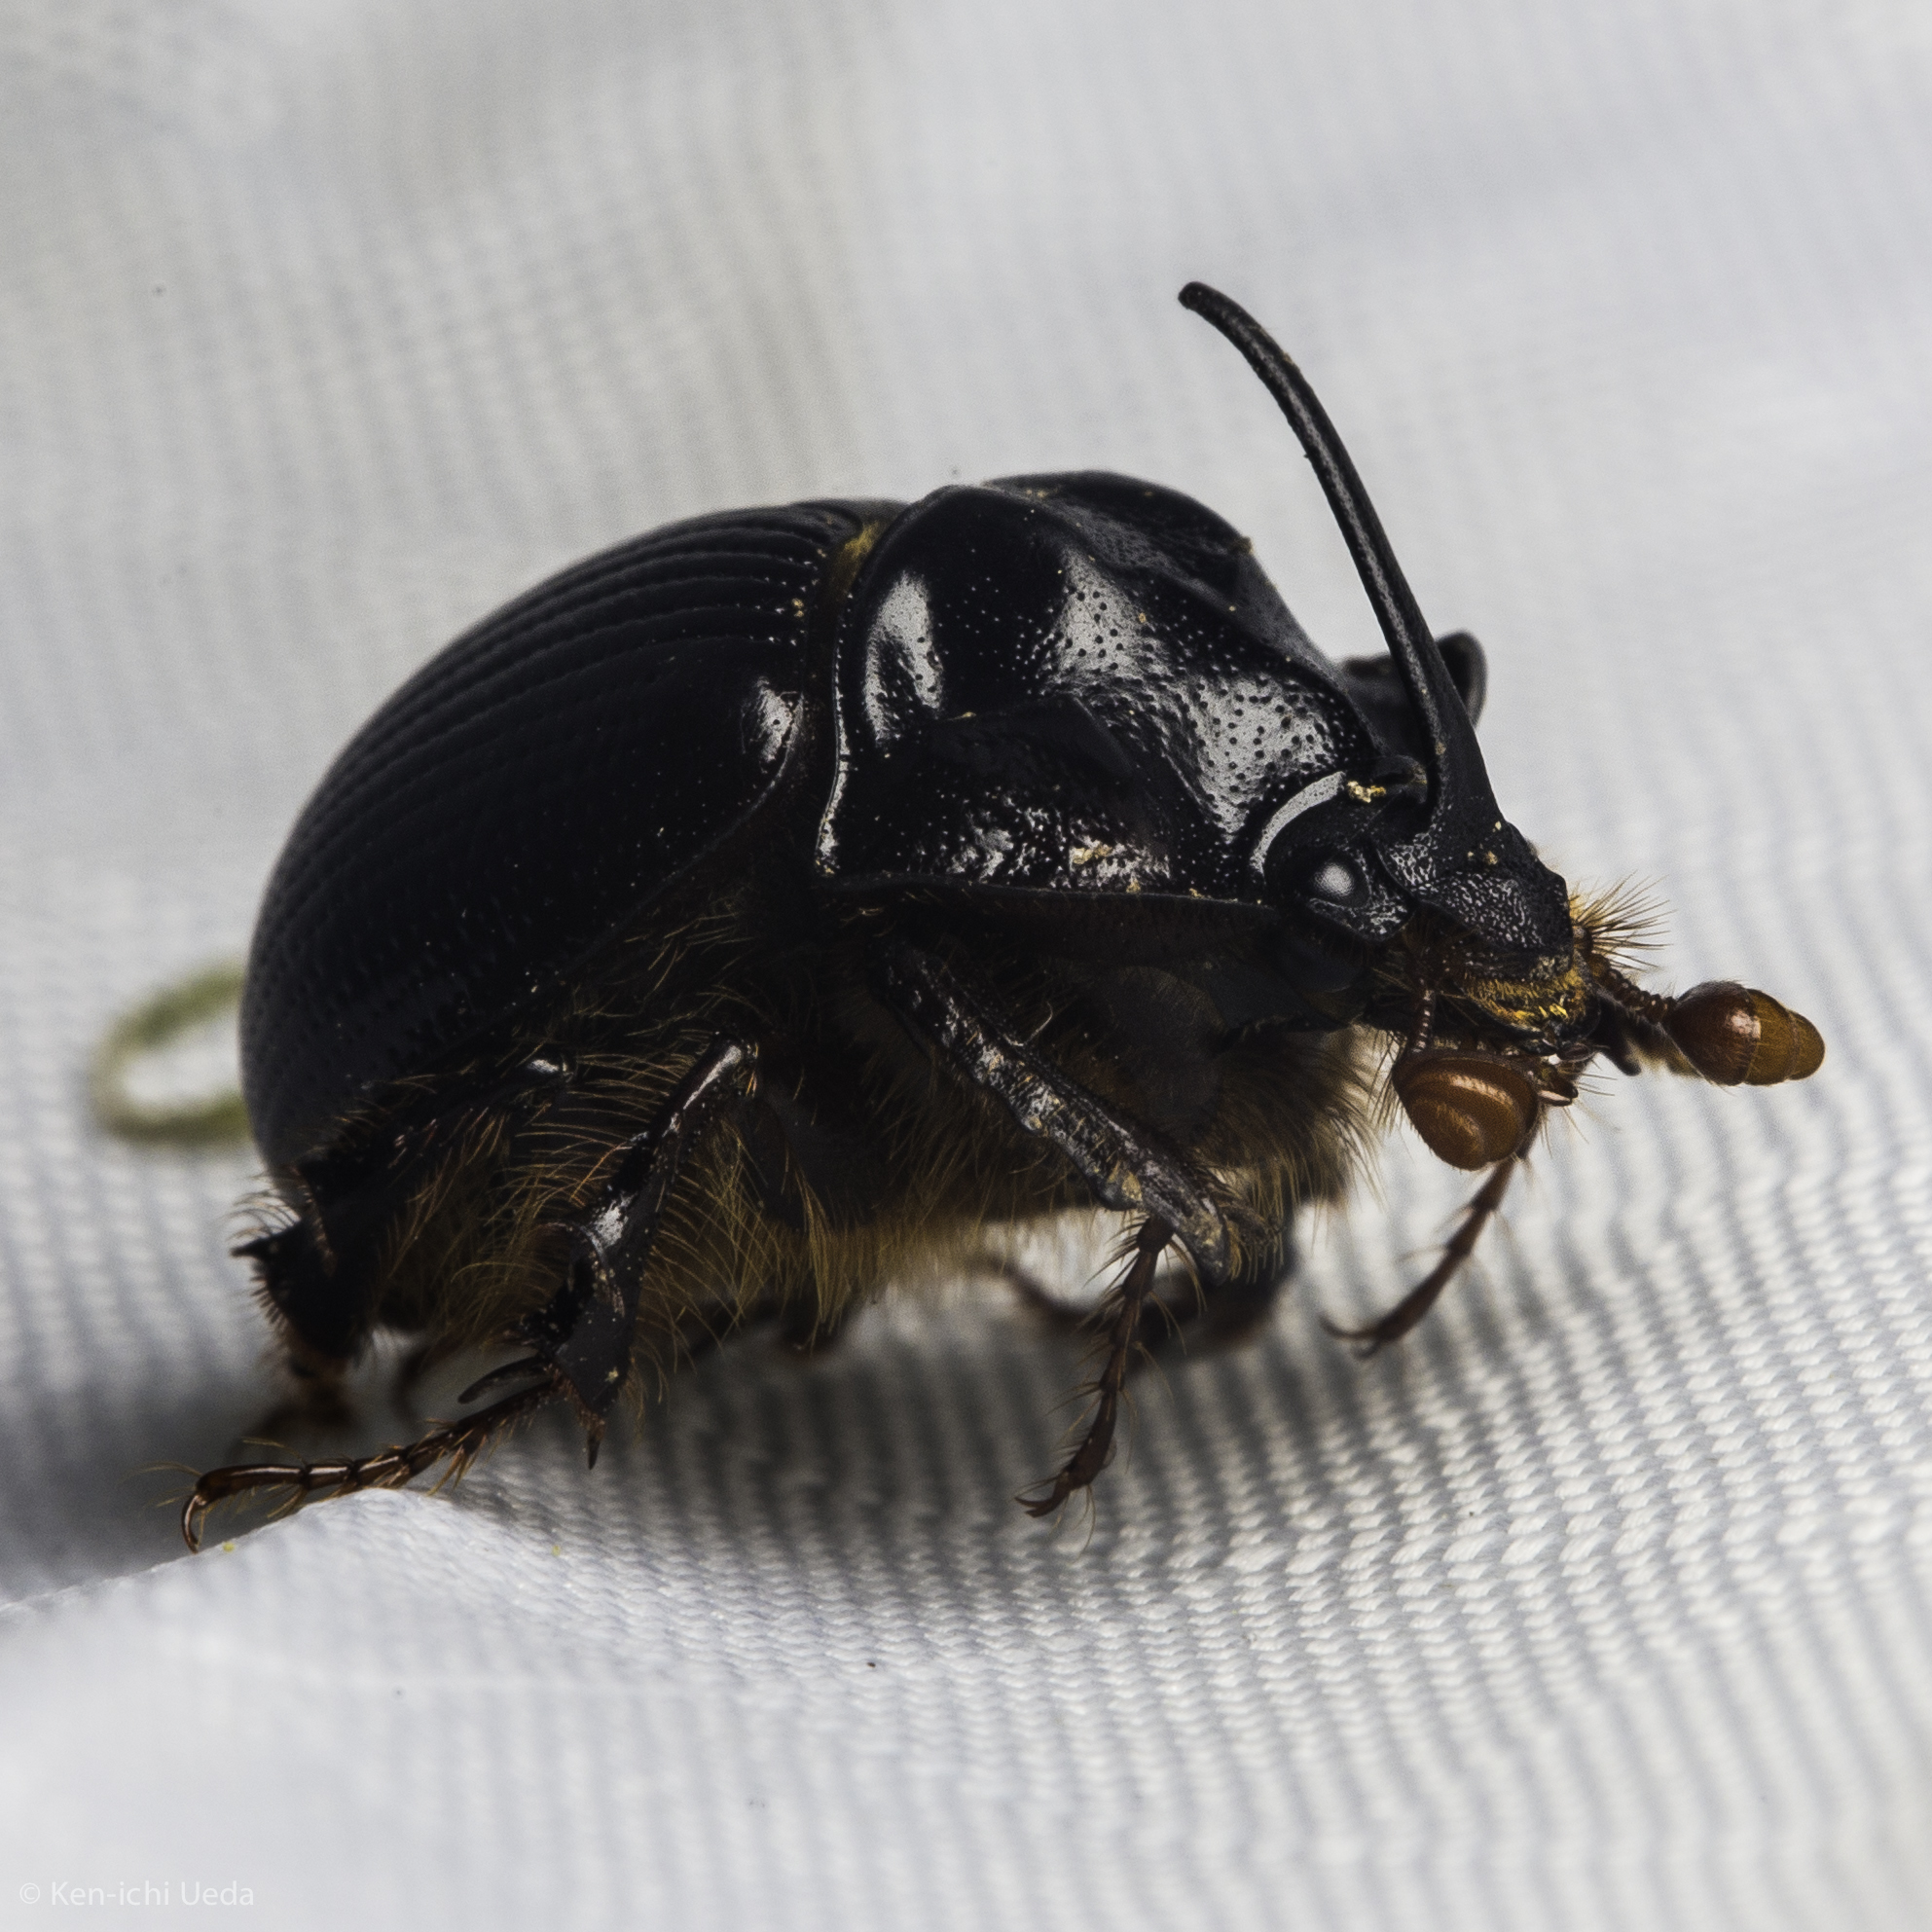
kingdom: Animalia
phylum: Arthropoda
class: Insecta
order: Coleoptera
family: Geotrupidae
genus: Odonteus
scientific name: Odonteus obesus
